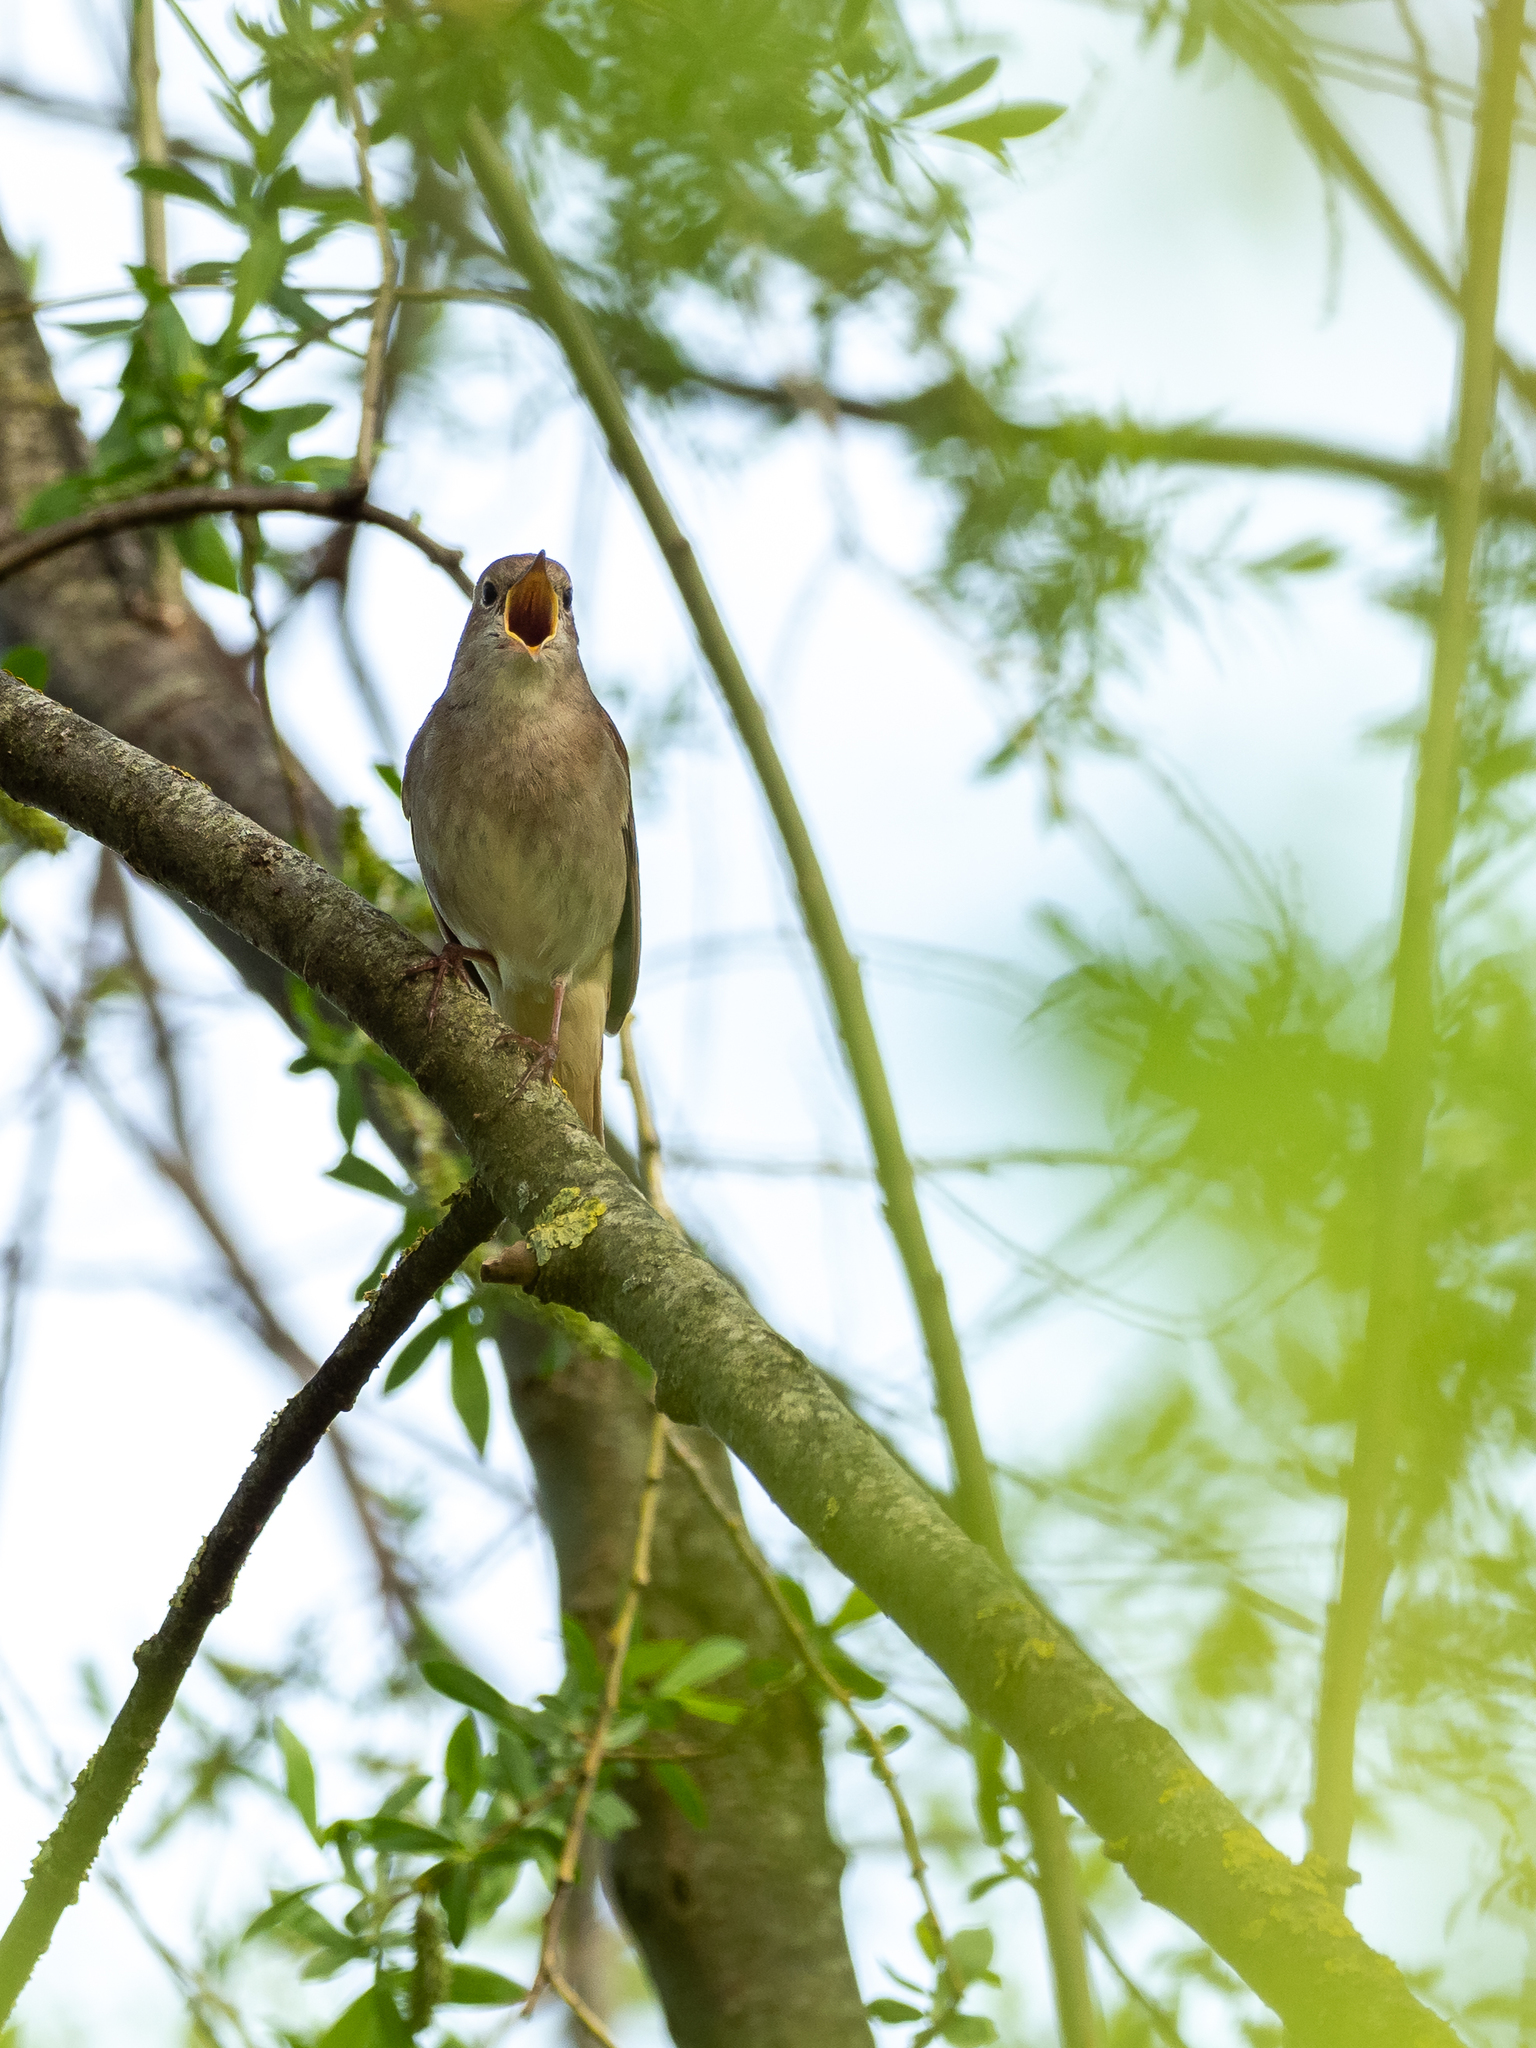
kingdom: Animalia
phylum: Chordata
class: Aves
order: Passeriformes
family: Muscicapidae
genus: Luscinia
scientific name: Luscinia megarhynchos
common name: Common nightingale
